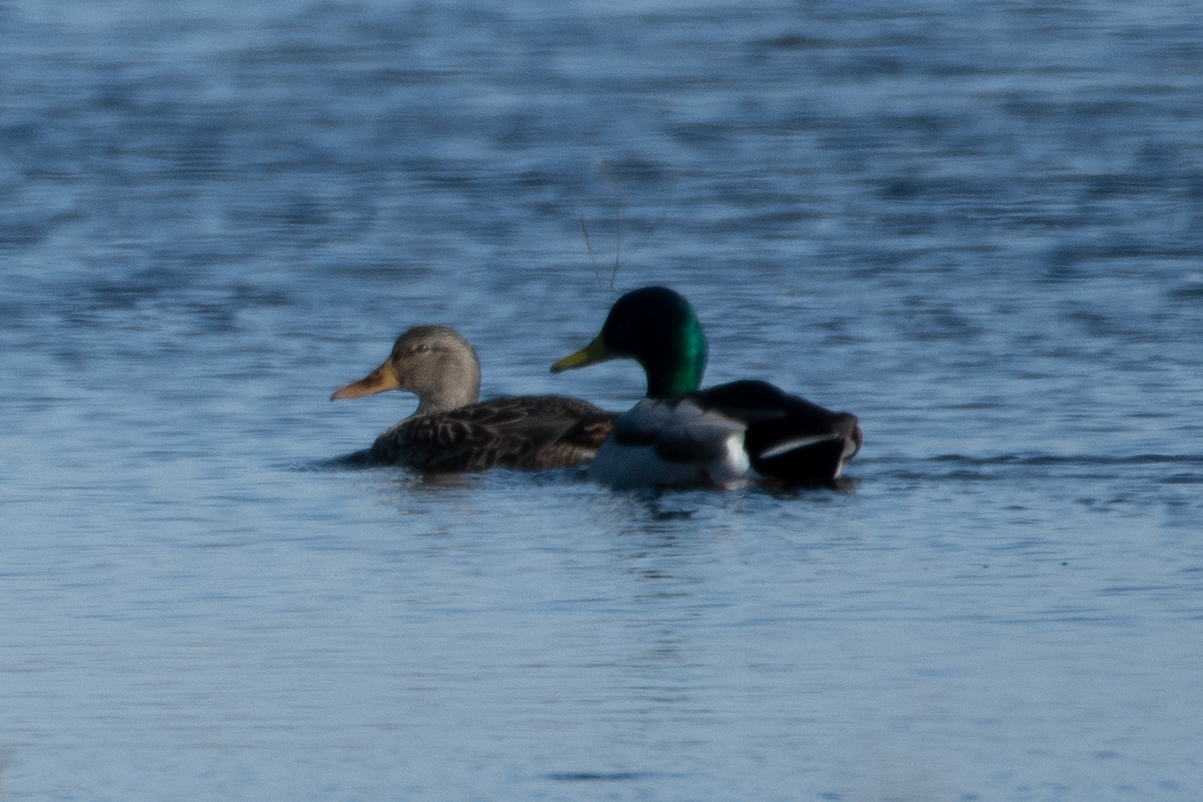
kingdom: Animalia
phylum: Chordata
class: Aves
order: Anseriformes
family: Anatidae
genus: Anas
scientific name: Anas platyrhynchos
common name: Mallard
